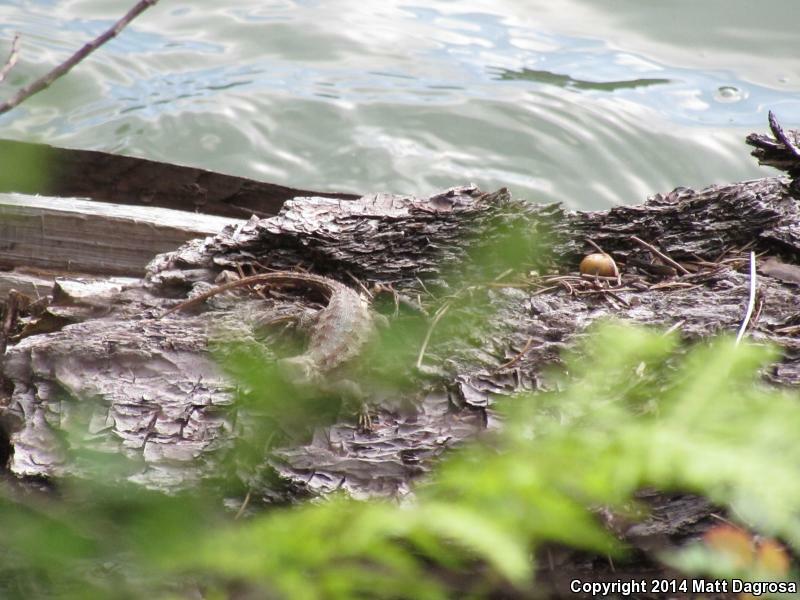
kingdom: Animalia
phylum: Chordata
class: Squamata
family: Phrynosomatidae
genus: Sceloporus
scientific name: Sceloporus occidentalis
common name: Western fence lizard
